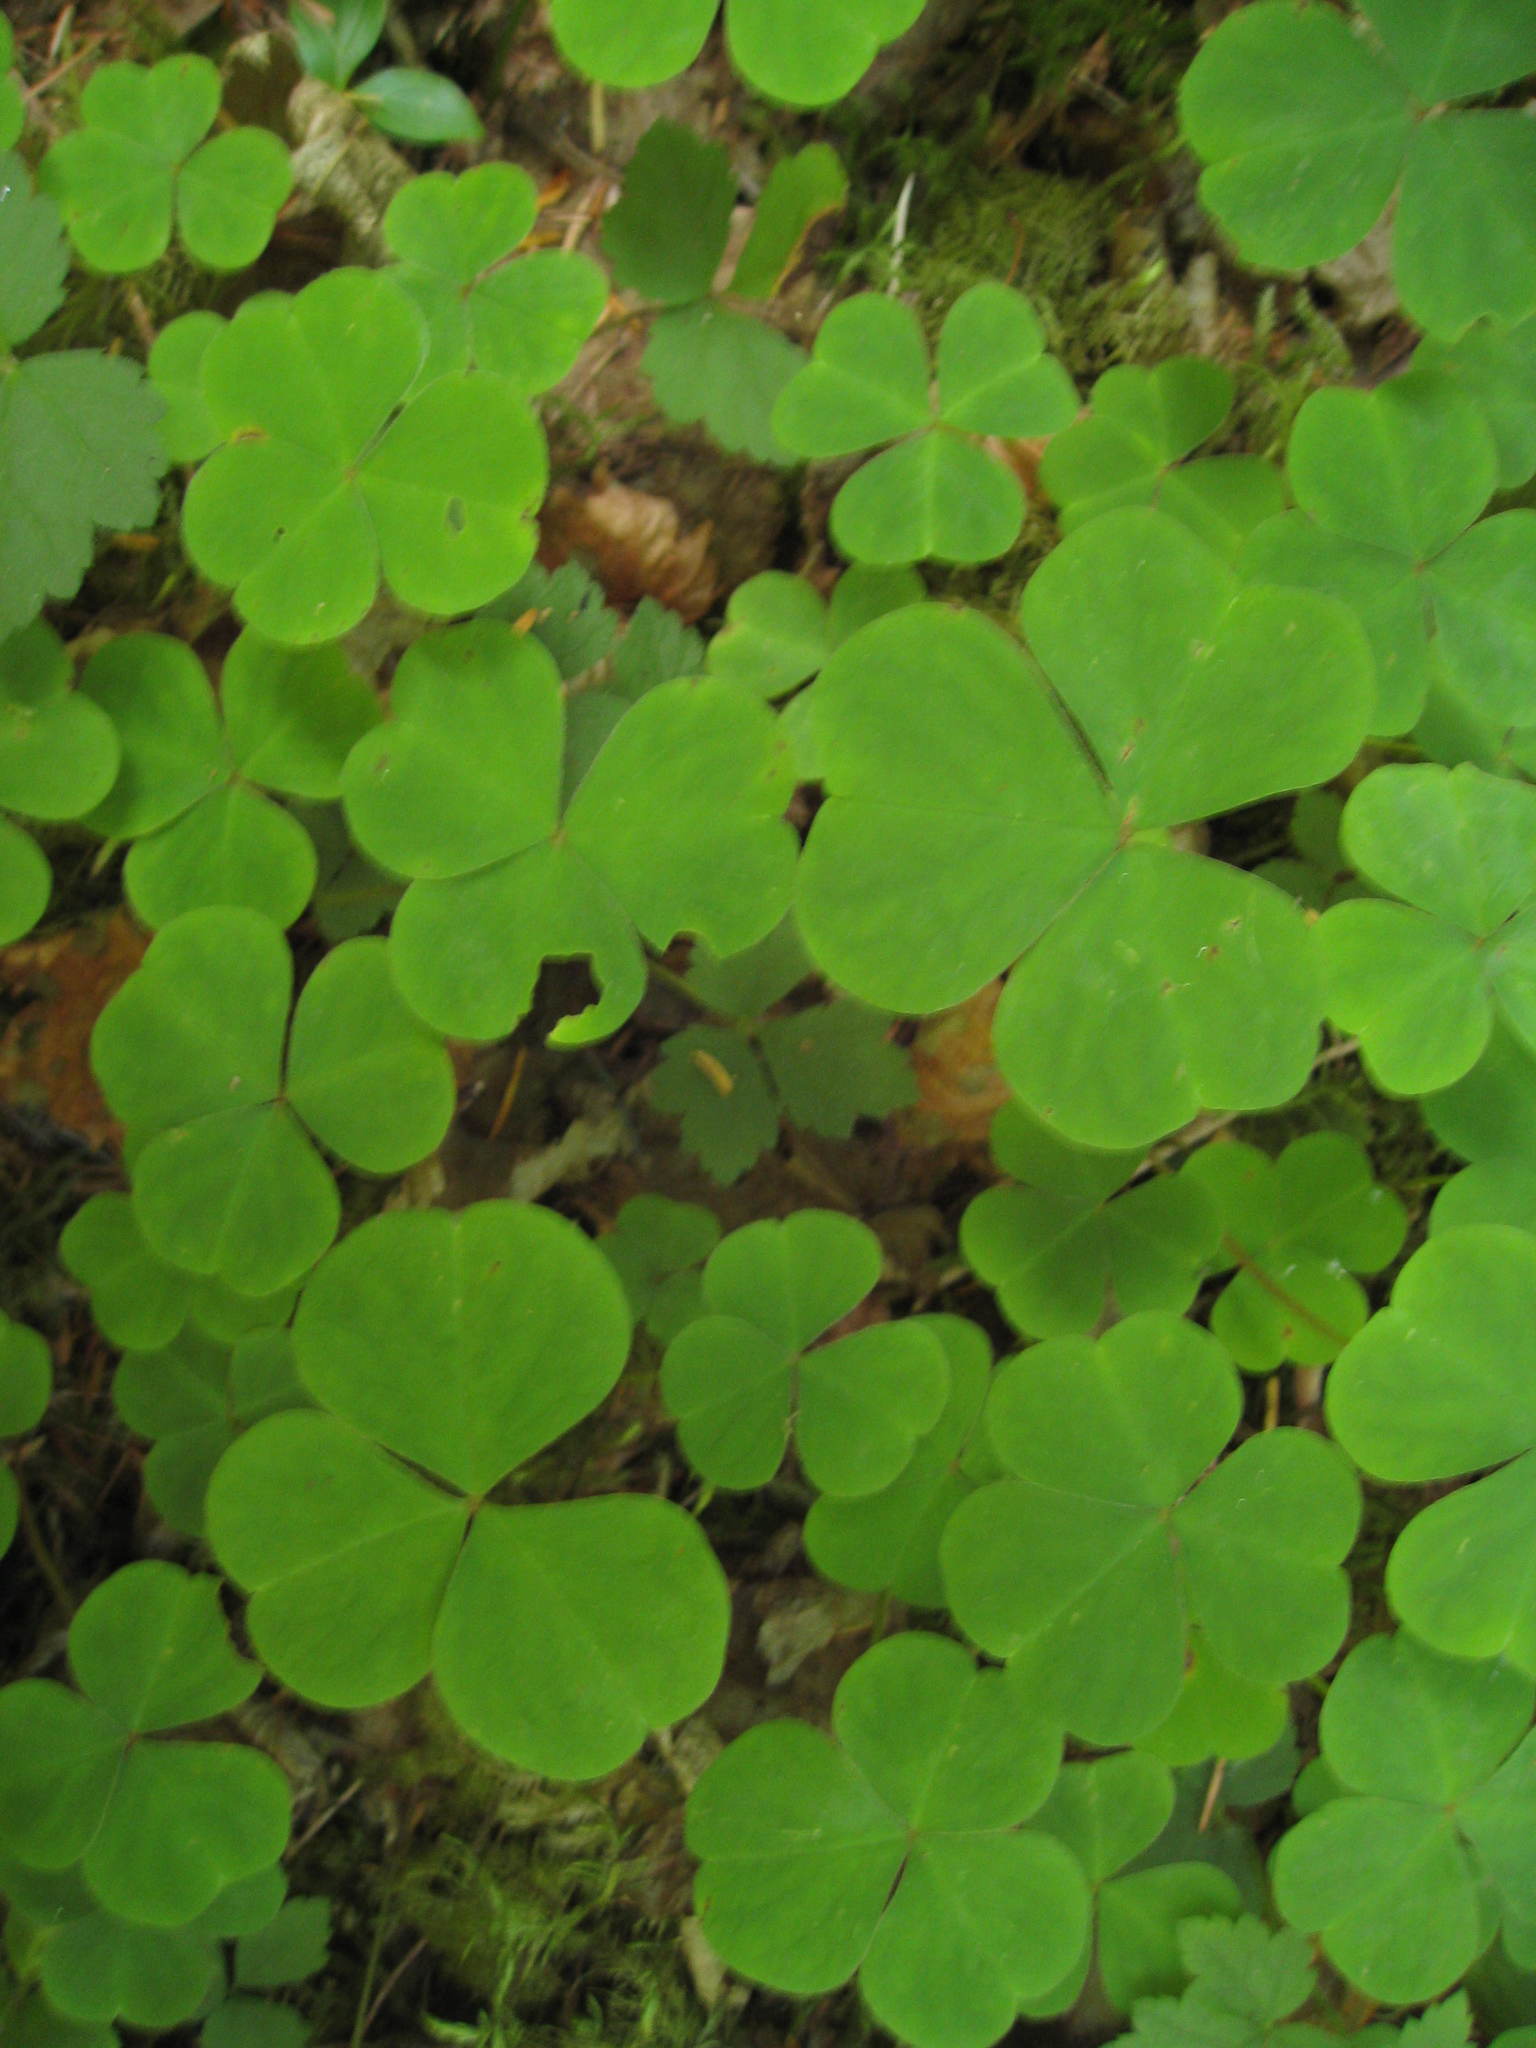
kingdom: Plantae
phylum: Tracheophyta
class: Magnoliopsida
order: Oxalidales
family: Oxalidaceae
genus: Oxalis
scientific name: Oxalis oregana
